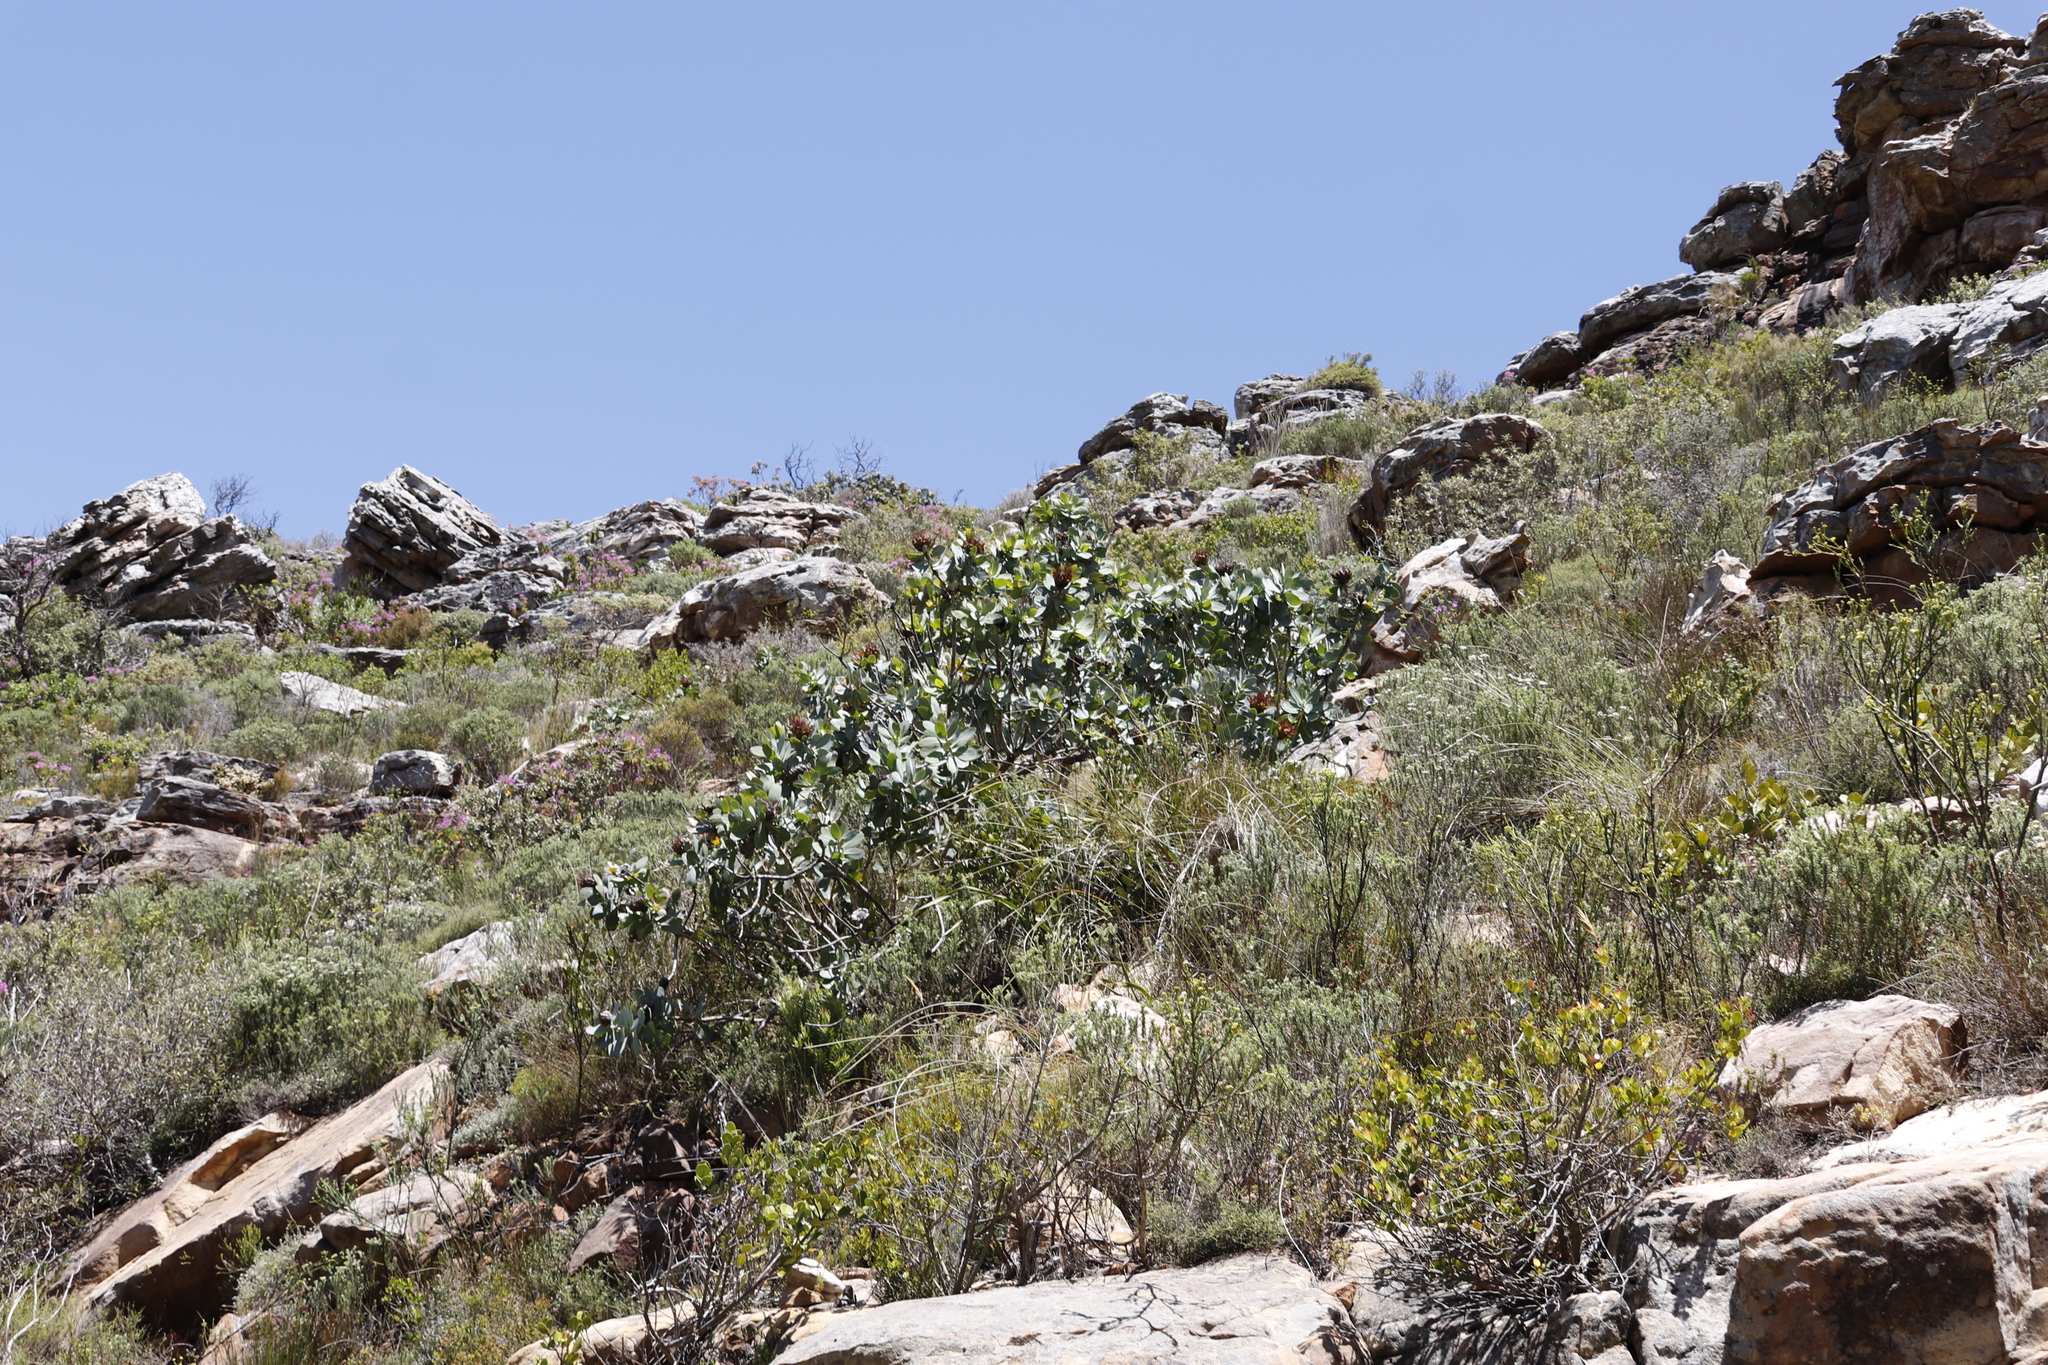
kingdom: Plantae
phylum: Tracheophyta
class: Magnoliopsida
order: Proteales
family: Proteaceae
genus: Protea
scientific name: Protea nitida
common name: Tree protea
